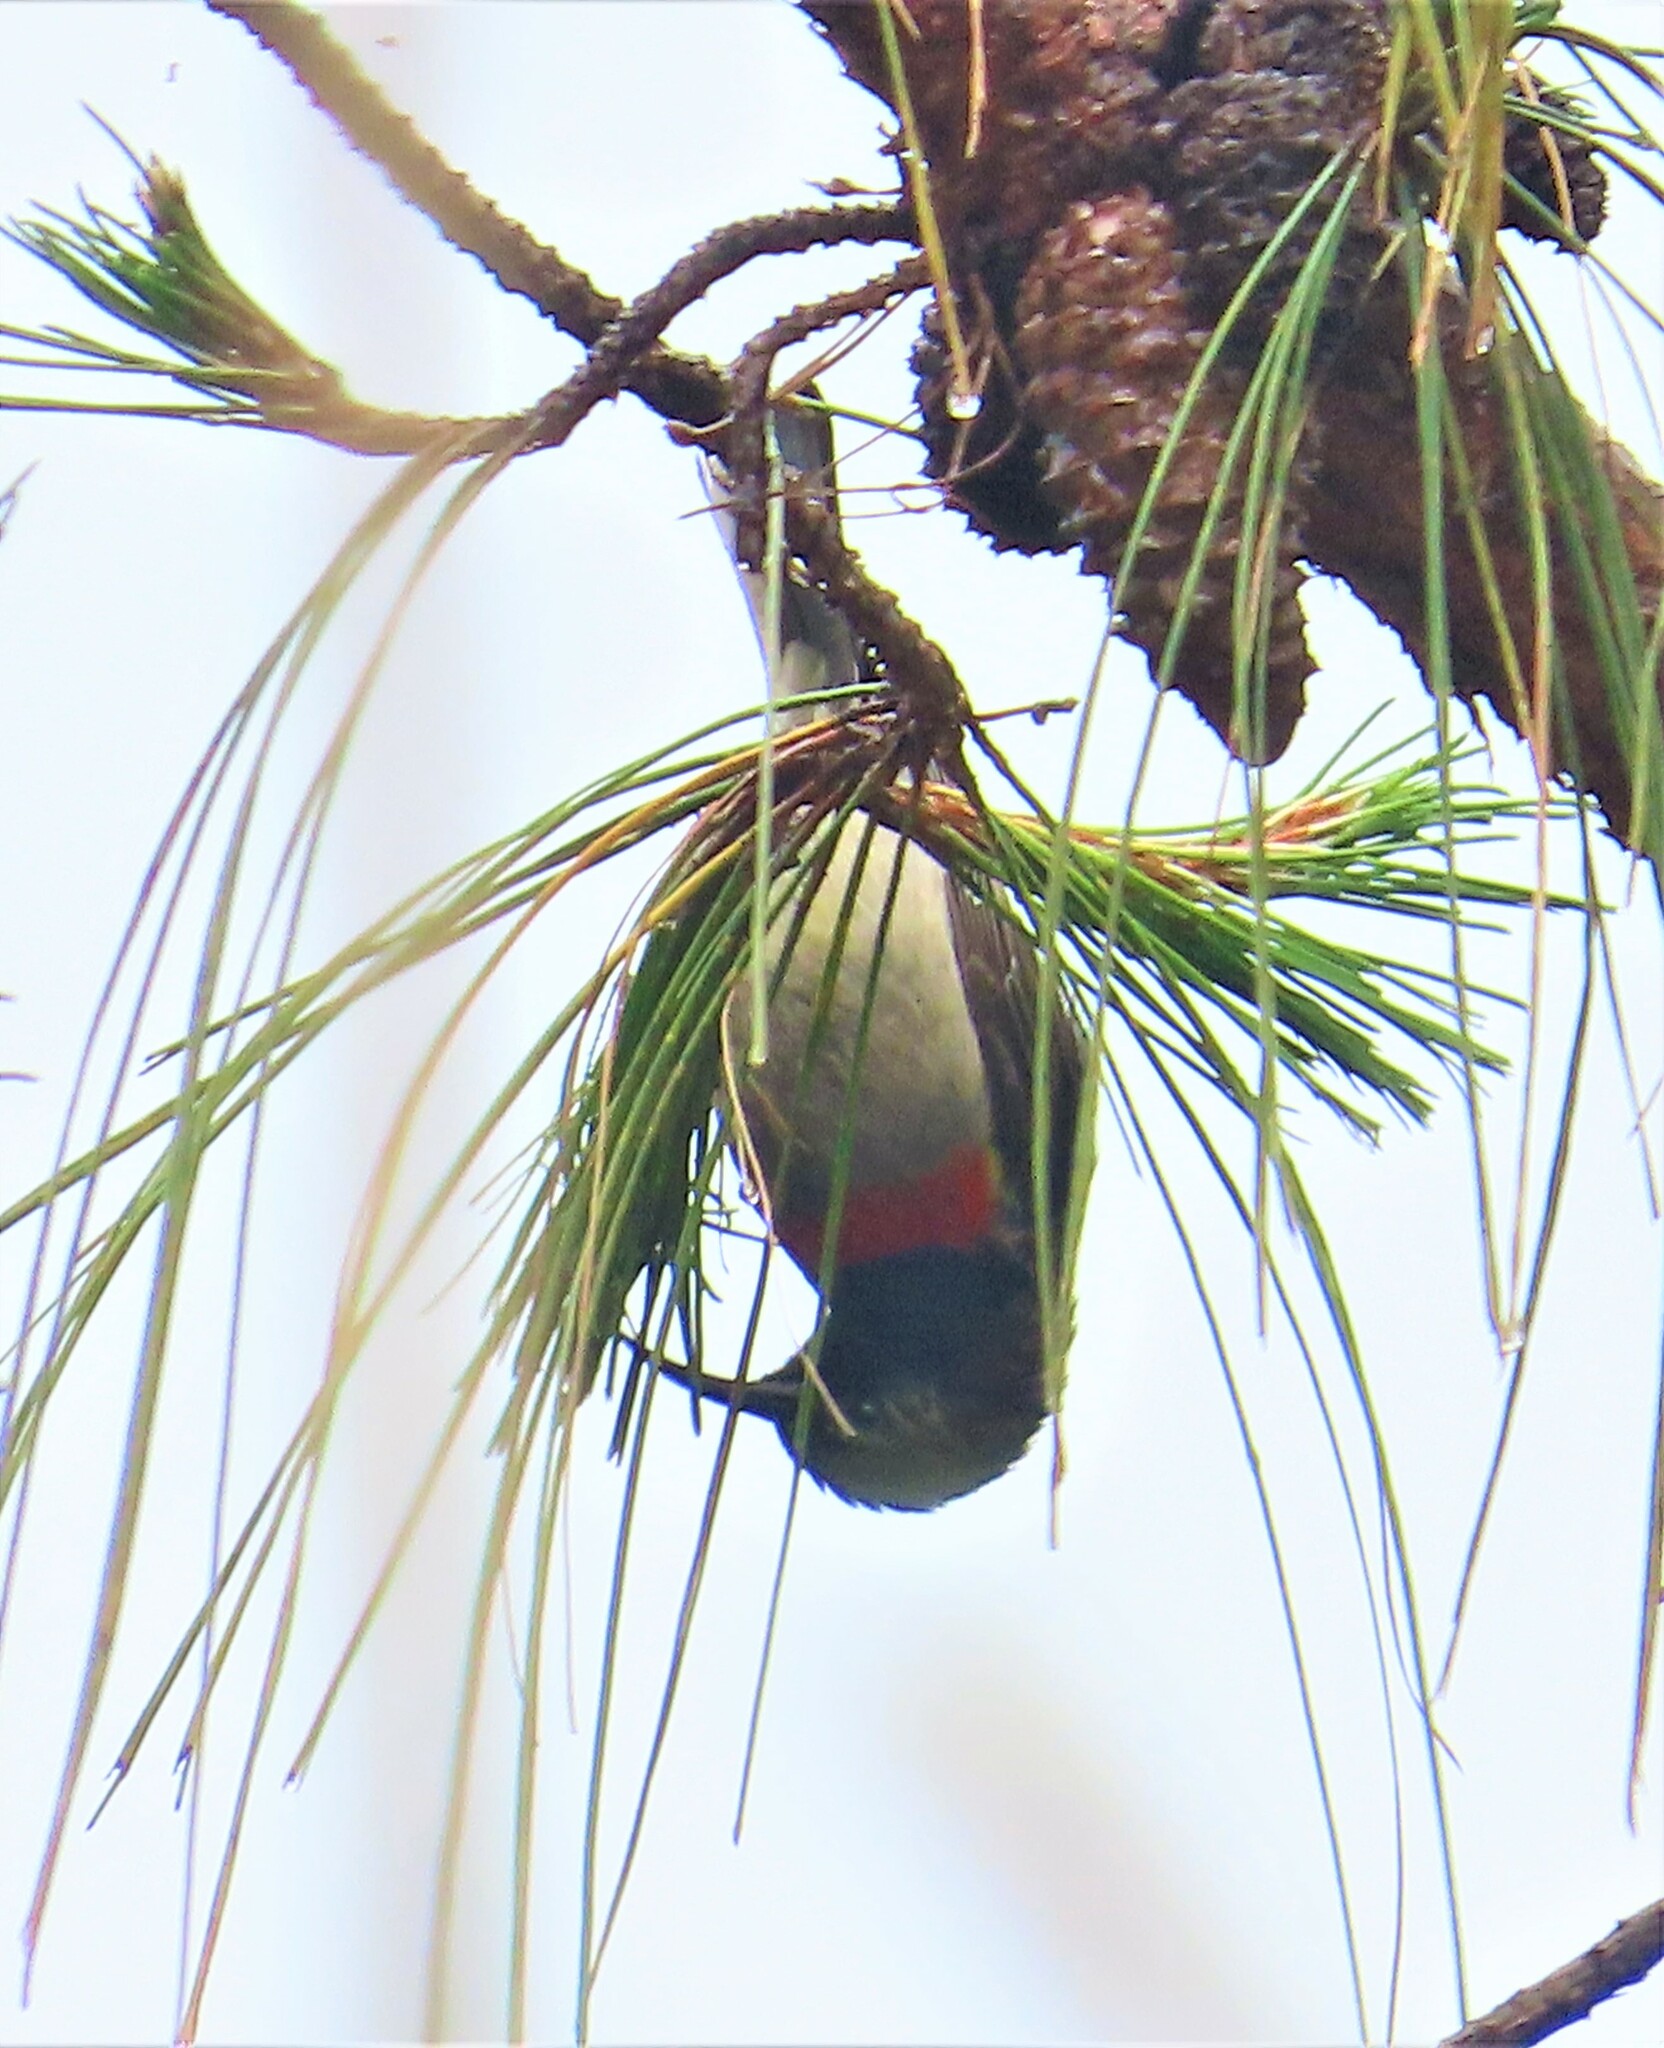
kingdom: Animalia
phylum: Chordata
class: Aves
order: Passeriformes
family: Nectariniidae
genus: Cinnyris
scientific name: Cinnyris manoensis
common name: Eastern miombo sunbird
